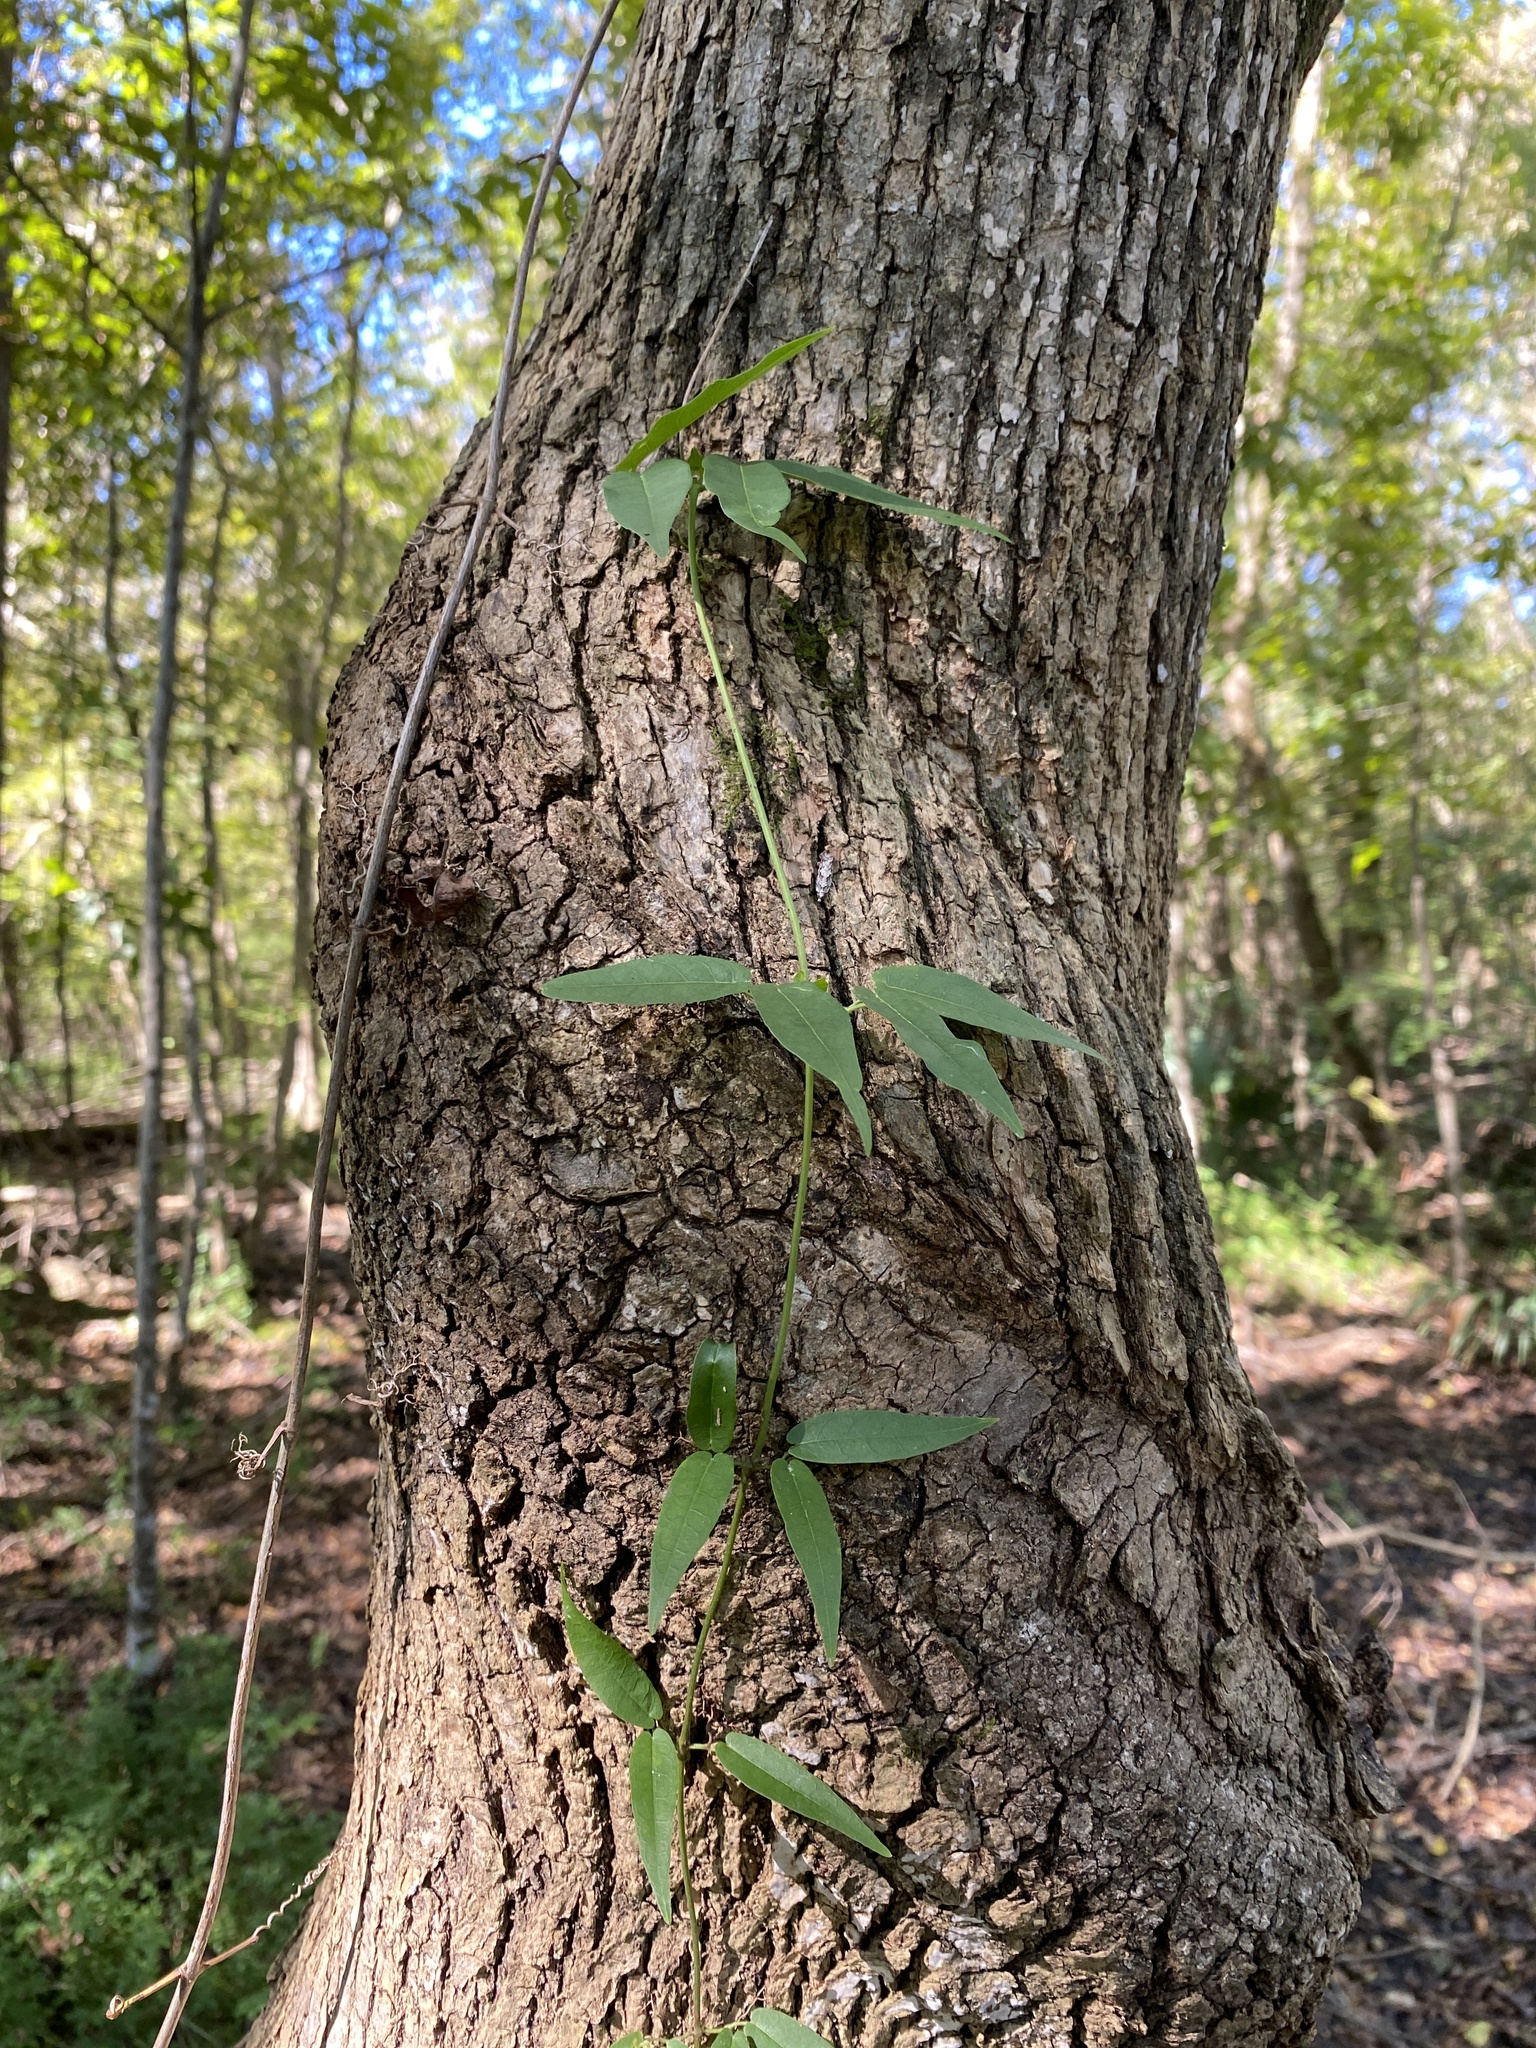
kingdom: Plantae
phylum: Tracheophyta
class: Magnoliopsida
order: Lamiales
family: Bignoniaceae
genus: Bignonia
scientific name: Bignonia capreolata
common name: Crossvine
